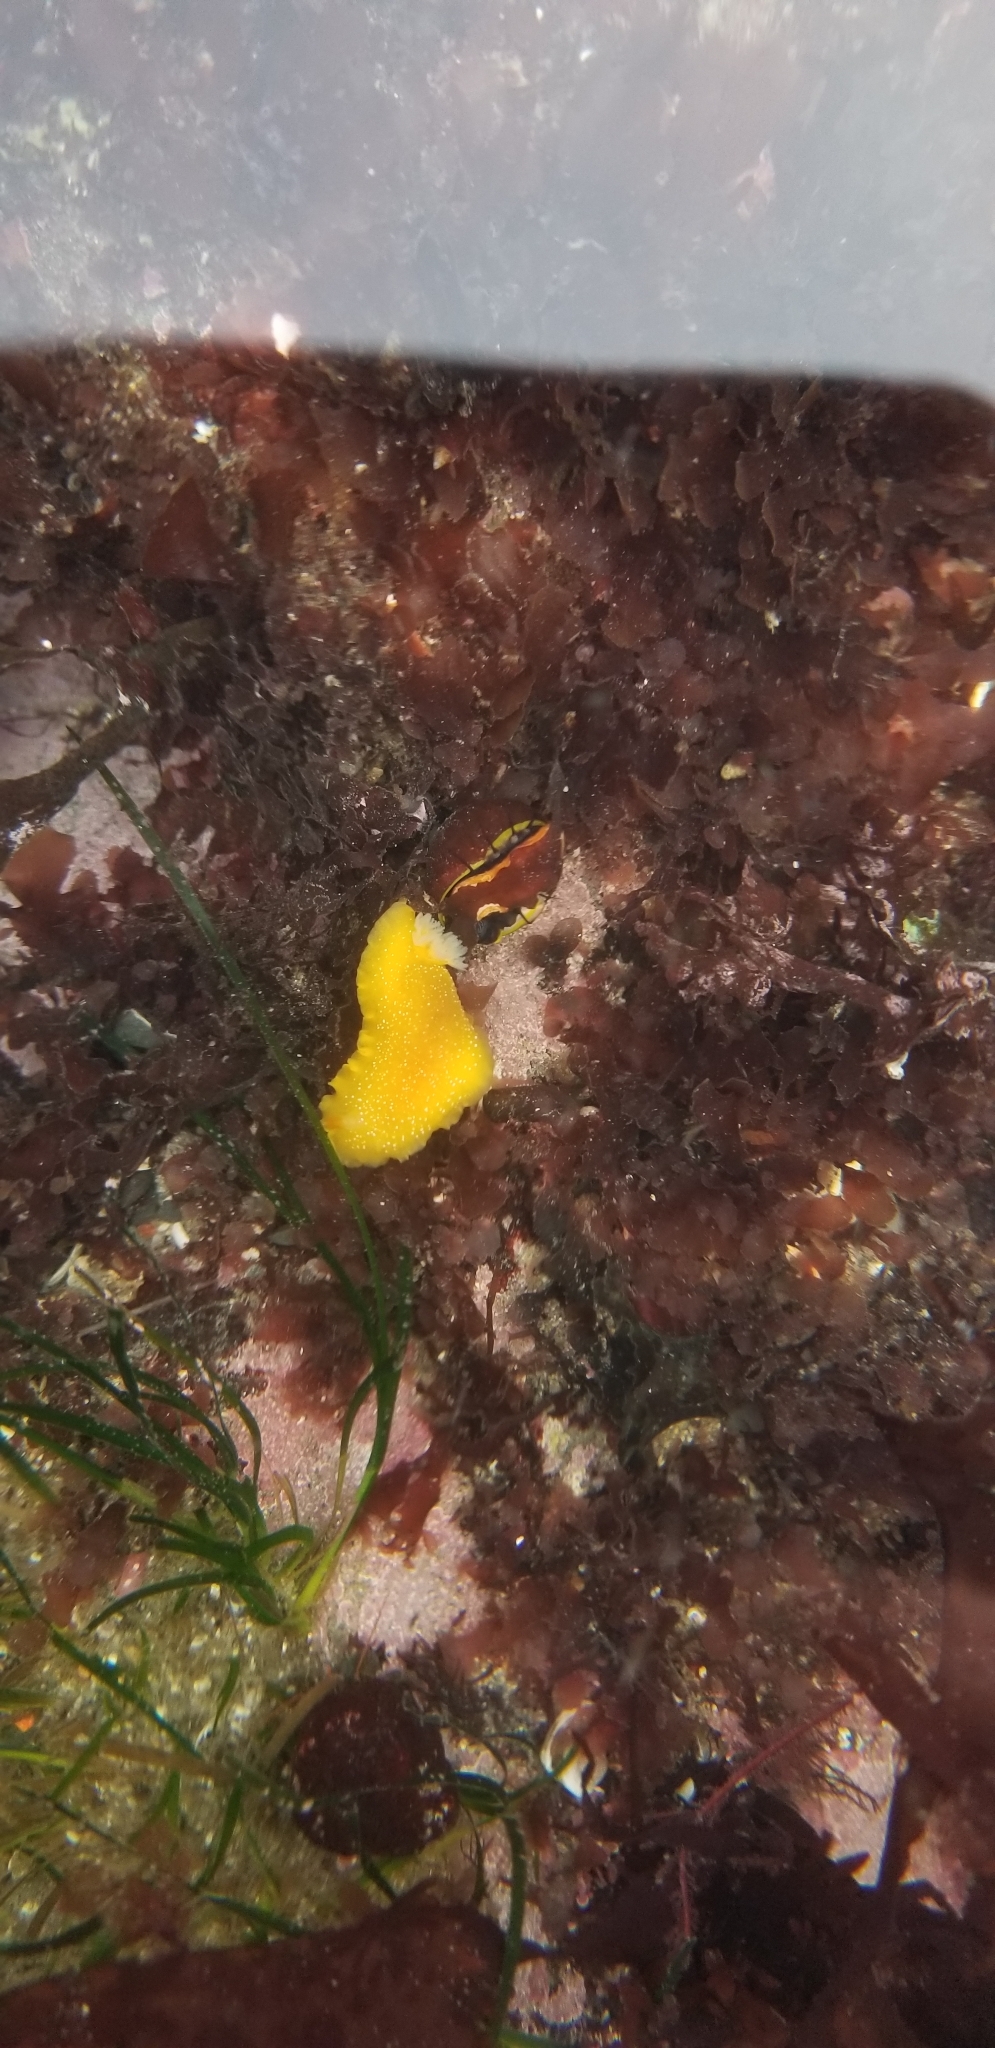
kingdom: Animalia
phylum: Mollusca
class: Gastropoda
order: Nudibranchia
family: Dendrodorididae
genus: Doriopsilla
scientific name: Doriopsilla fulva
